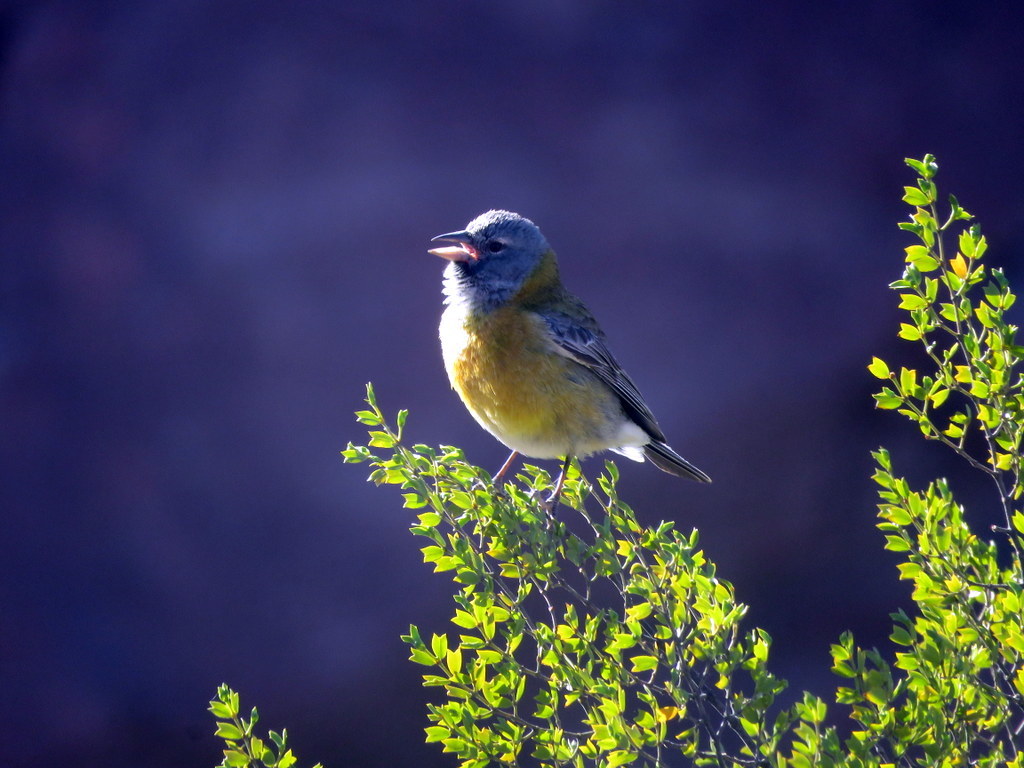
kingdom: Animalia
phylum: Chordata
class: Aves
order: Passeriformes
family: Thraupidae
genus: Phrygilus
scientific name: Phrygilus gayi
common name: Grey-hooded sierra finch
